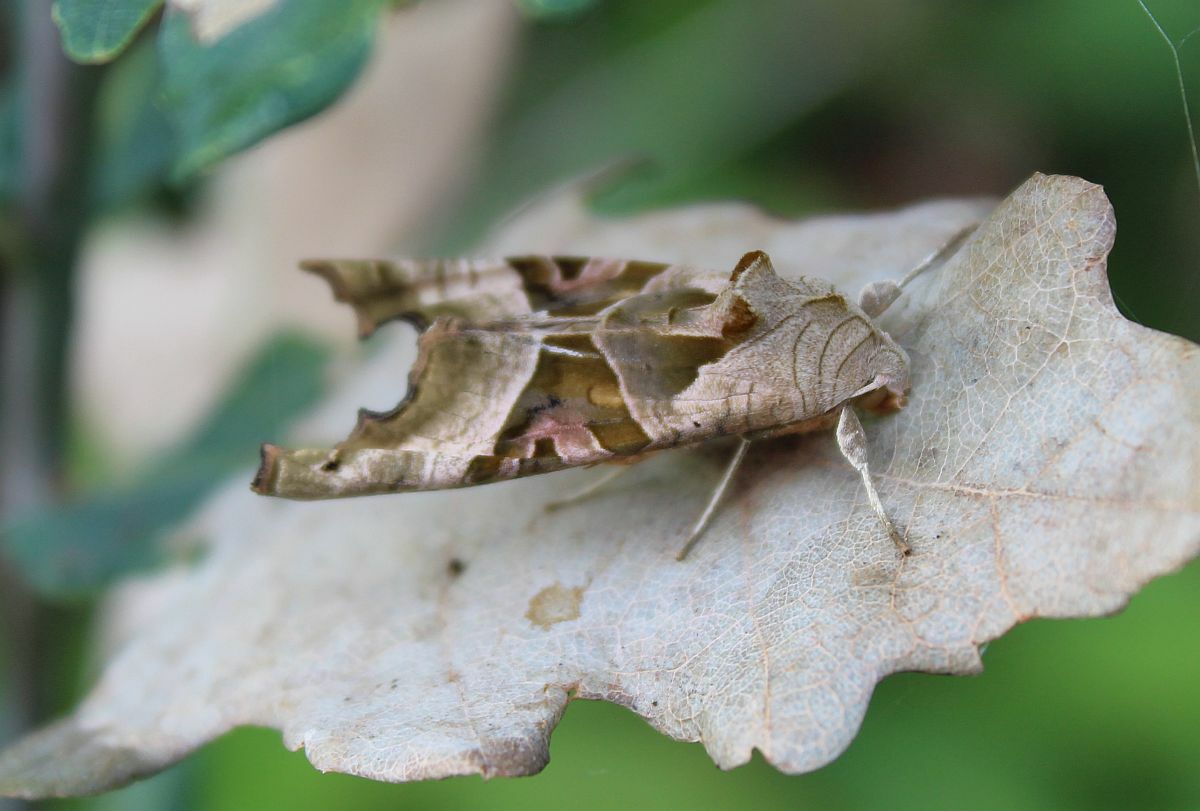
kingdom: Animalia
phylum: Arthropoda
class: Insecta
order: Lepidoptera
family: Noctuidae
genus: Phlogophora
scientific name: Phlogophora meticulosa
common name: Angle shades
